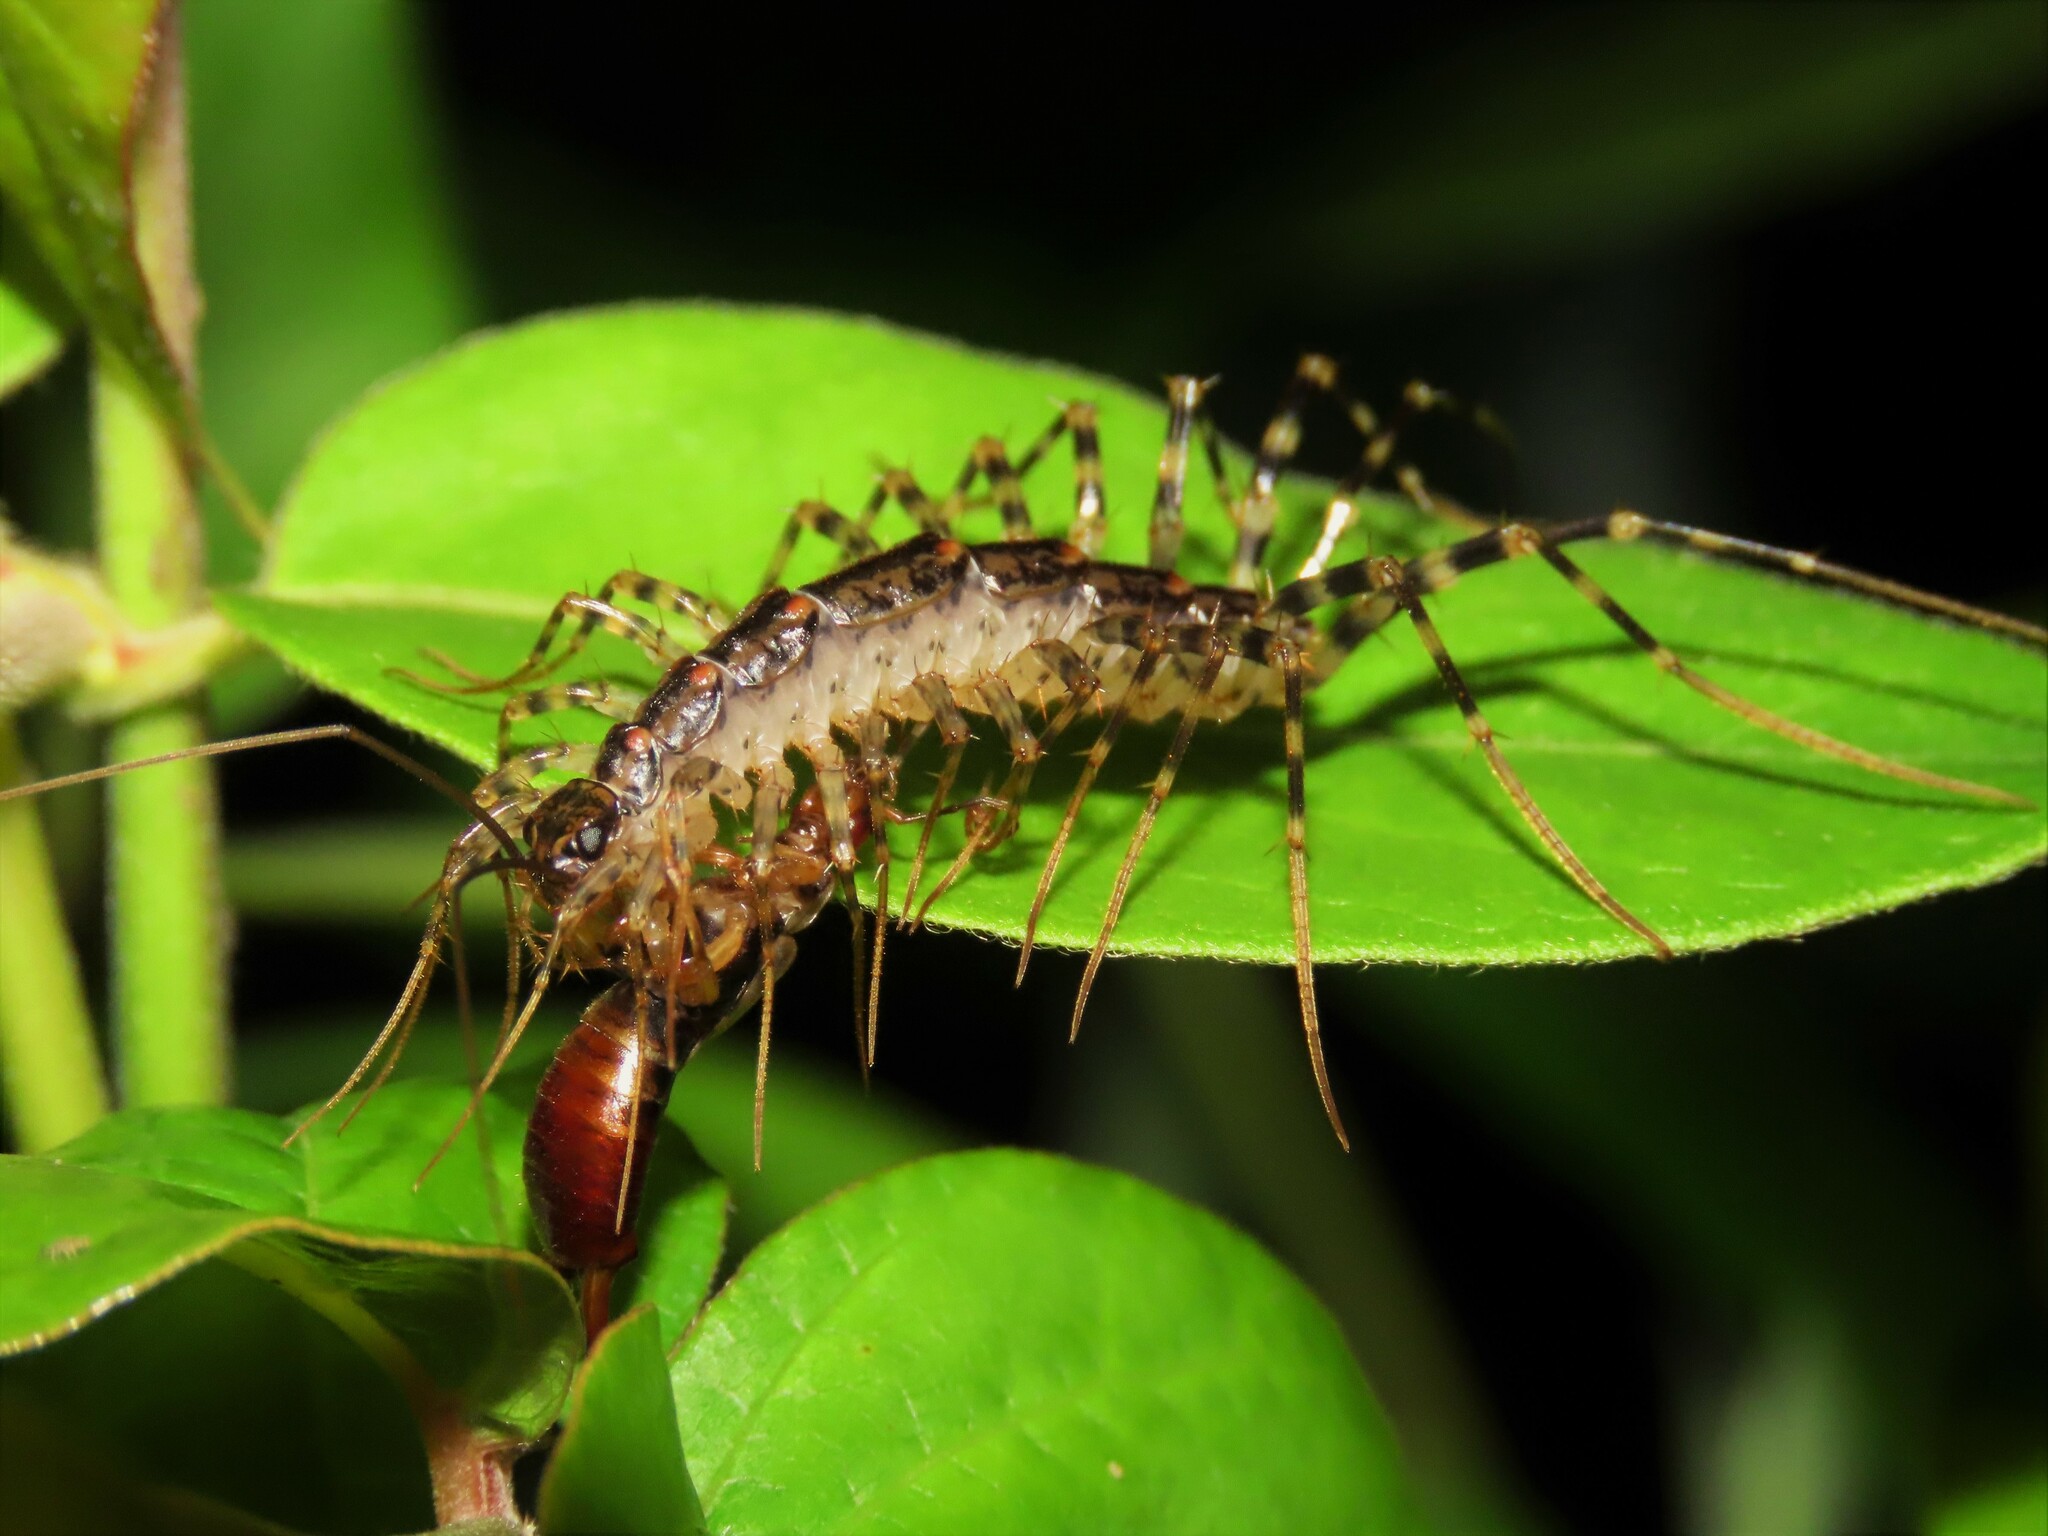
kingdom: Animalia
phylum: Arthropoda
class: Chilopoda
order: Scutigeromorpha
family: Scutigeridae
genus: Thereuonema
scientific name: Thereuonema tuberculata
